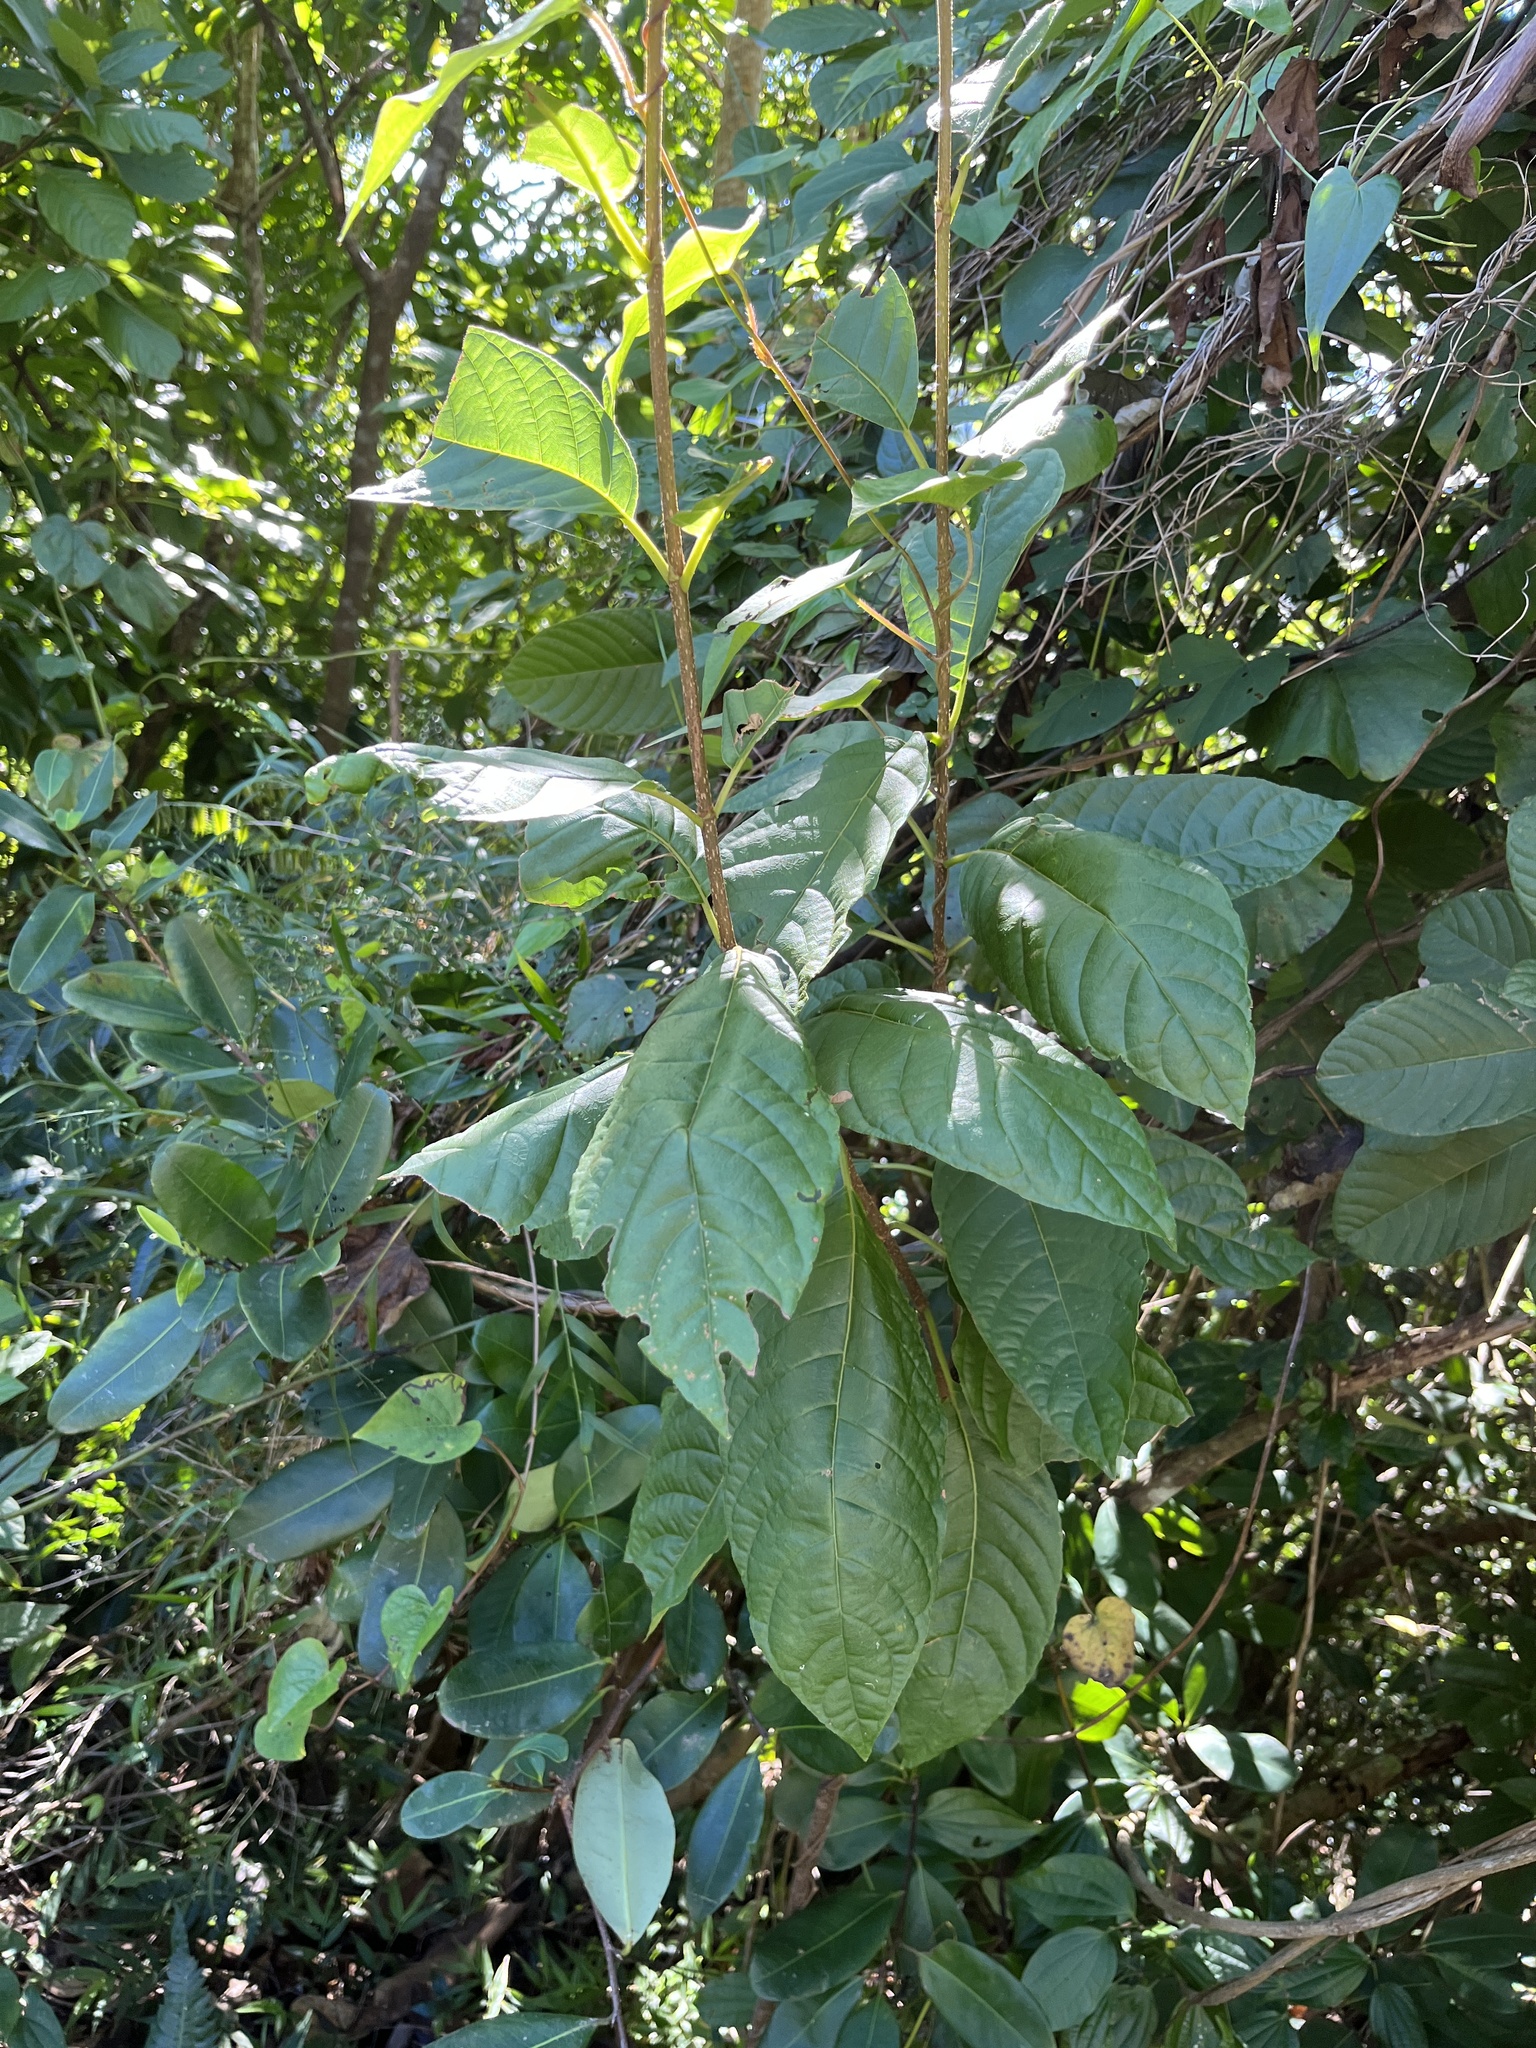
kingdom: Plantae
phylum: Tracheophyta
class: Magnoliopsida
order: Lamiales
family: Lamiaceae
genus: Petitia
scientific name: Petitia domingensis
